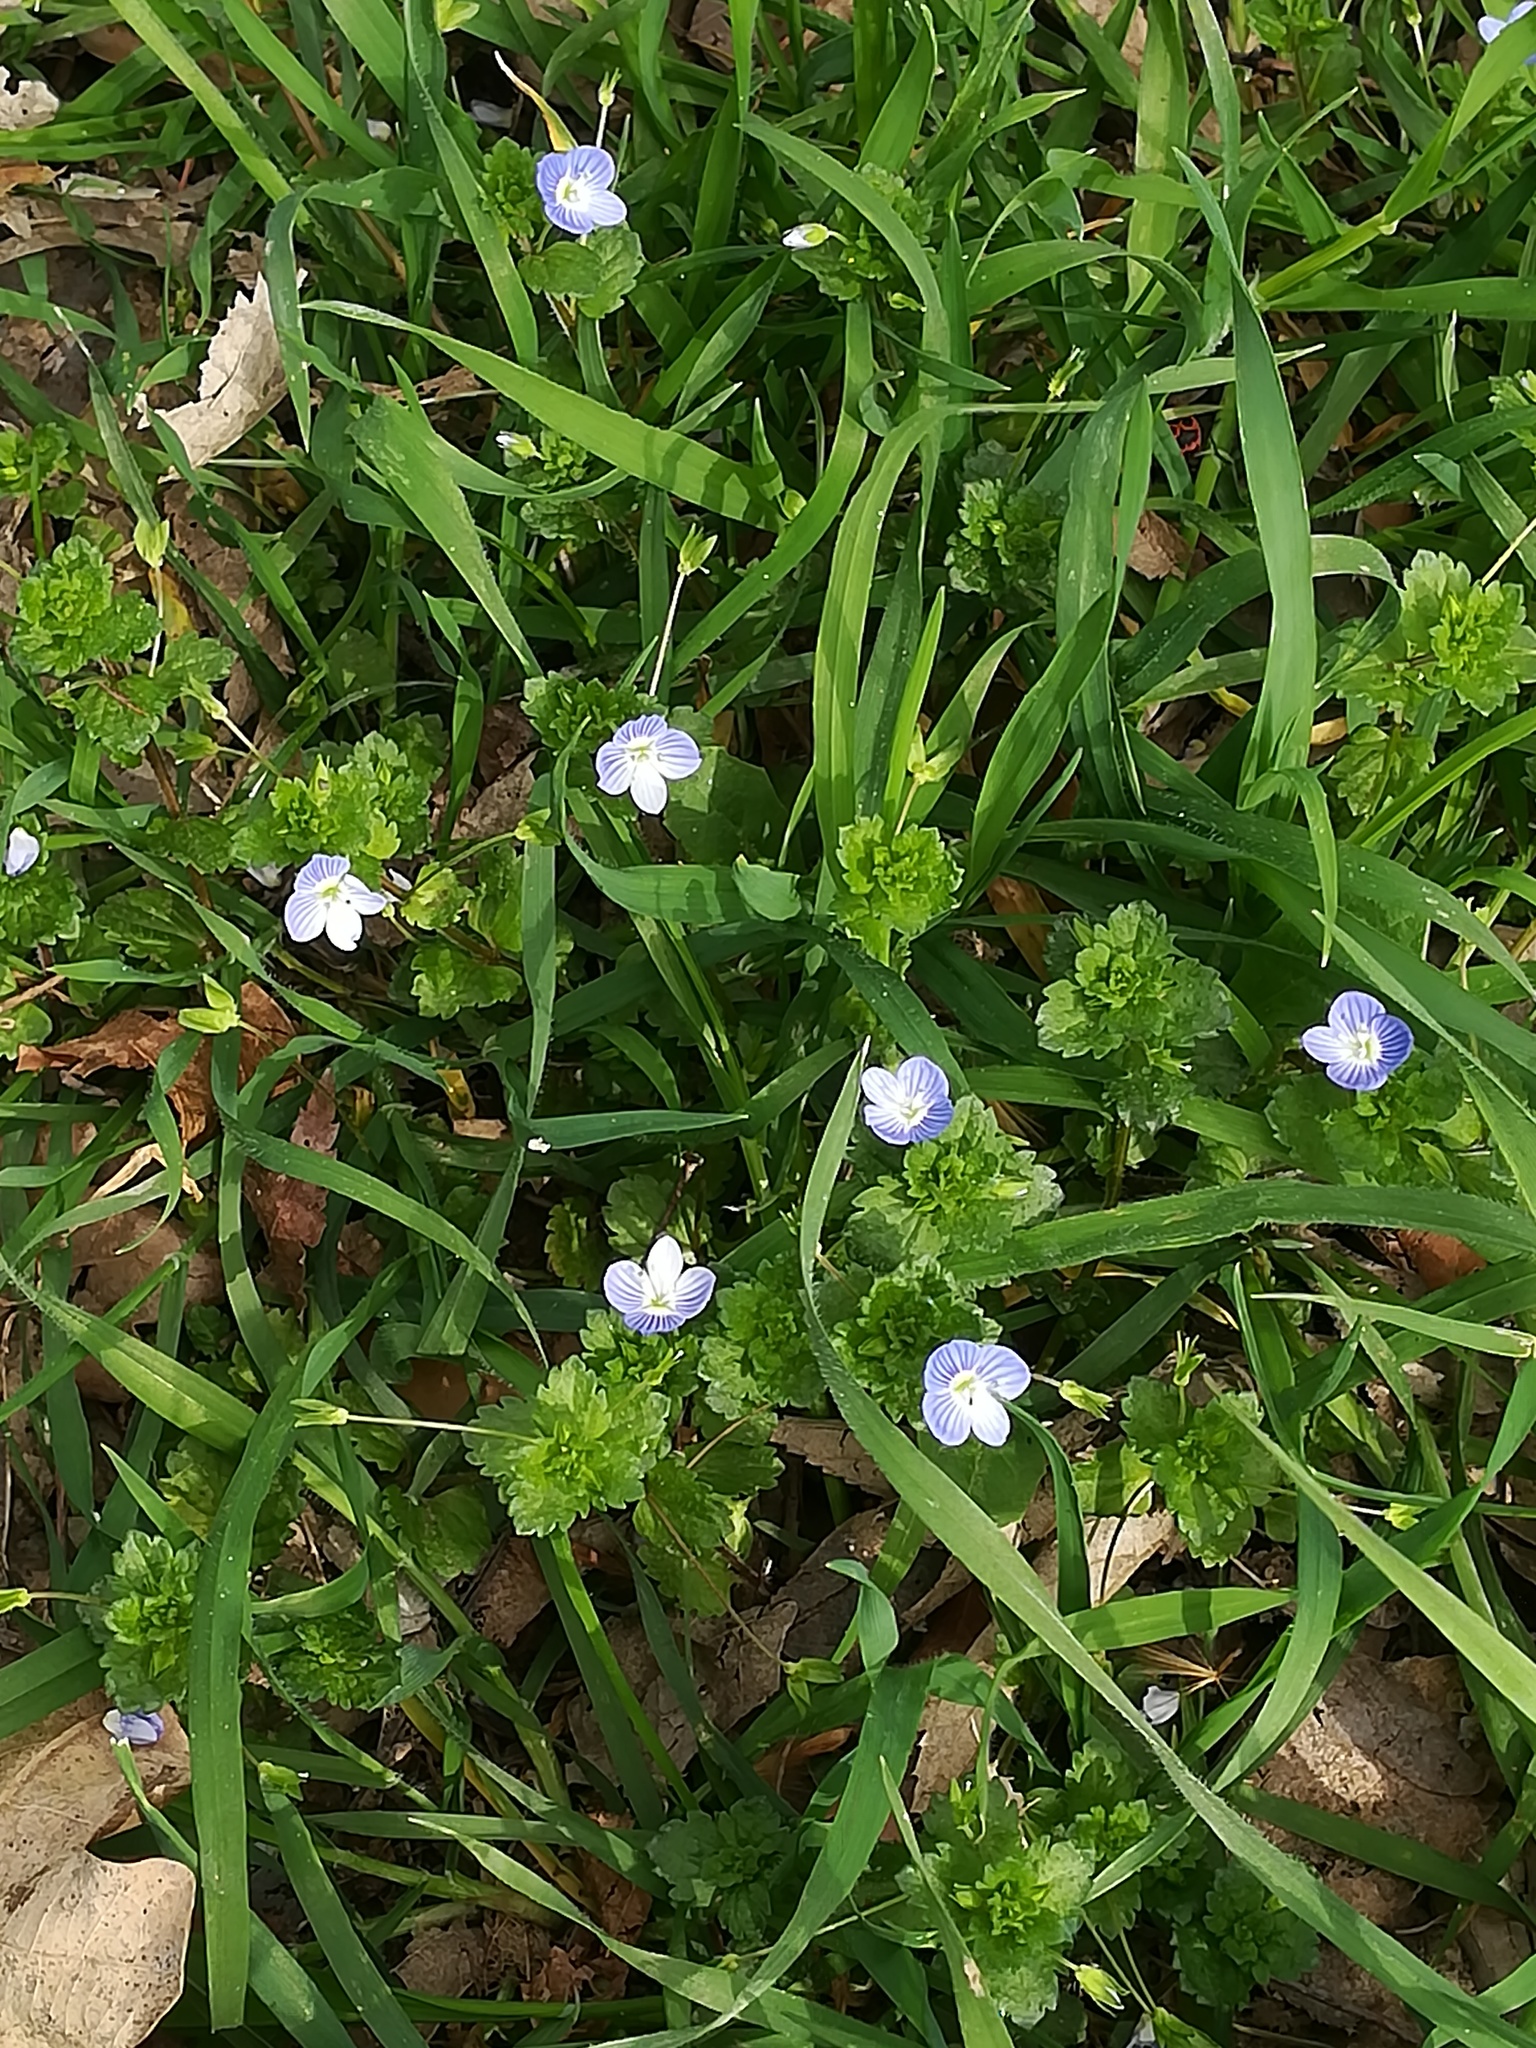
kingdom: Plantae
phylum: Tracheophyta
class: Magnoliopsida
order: Lamiales
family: Plantaginaceae
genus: Veronica
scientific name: Veronica persica
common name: Common field-speedwell
